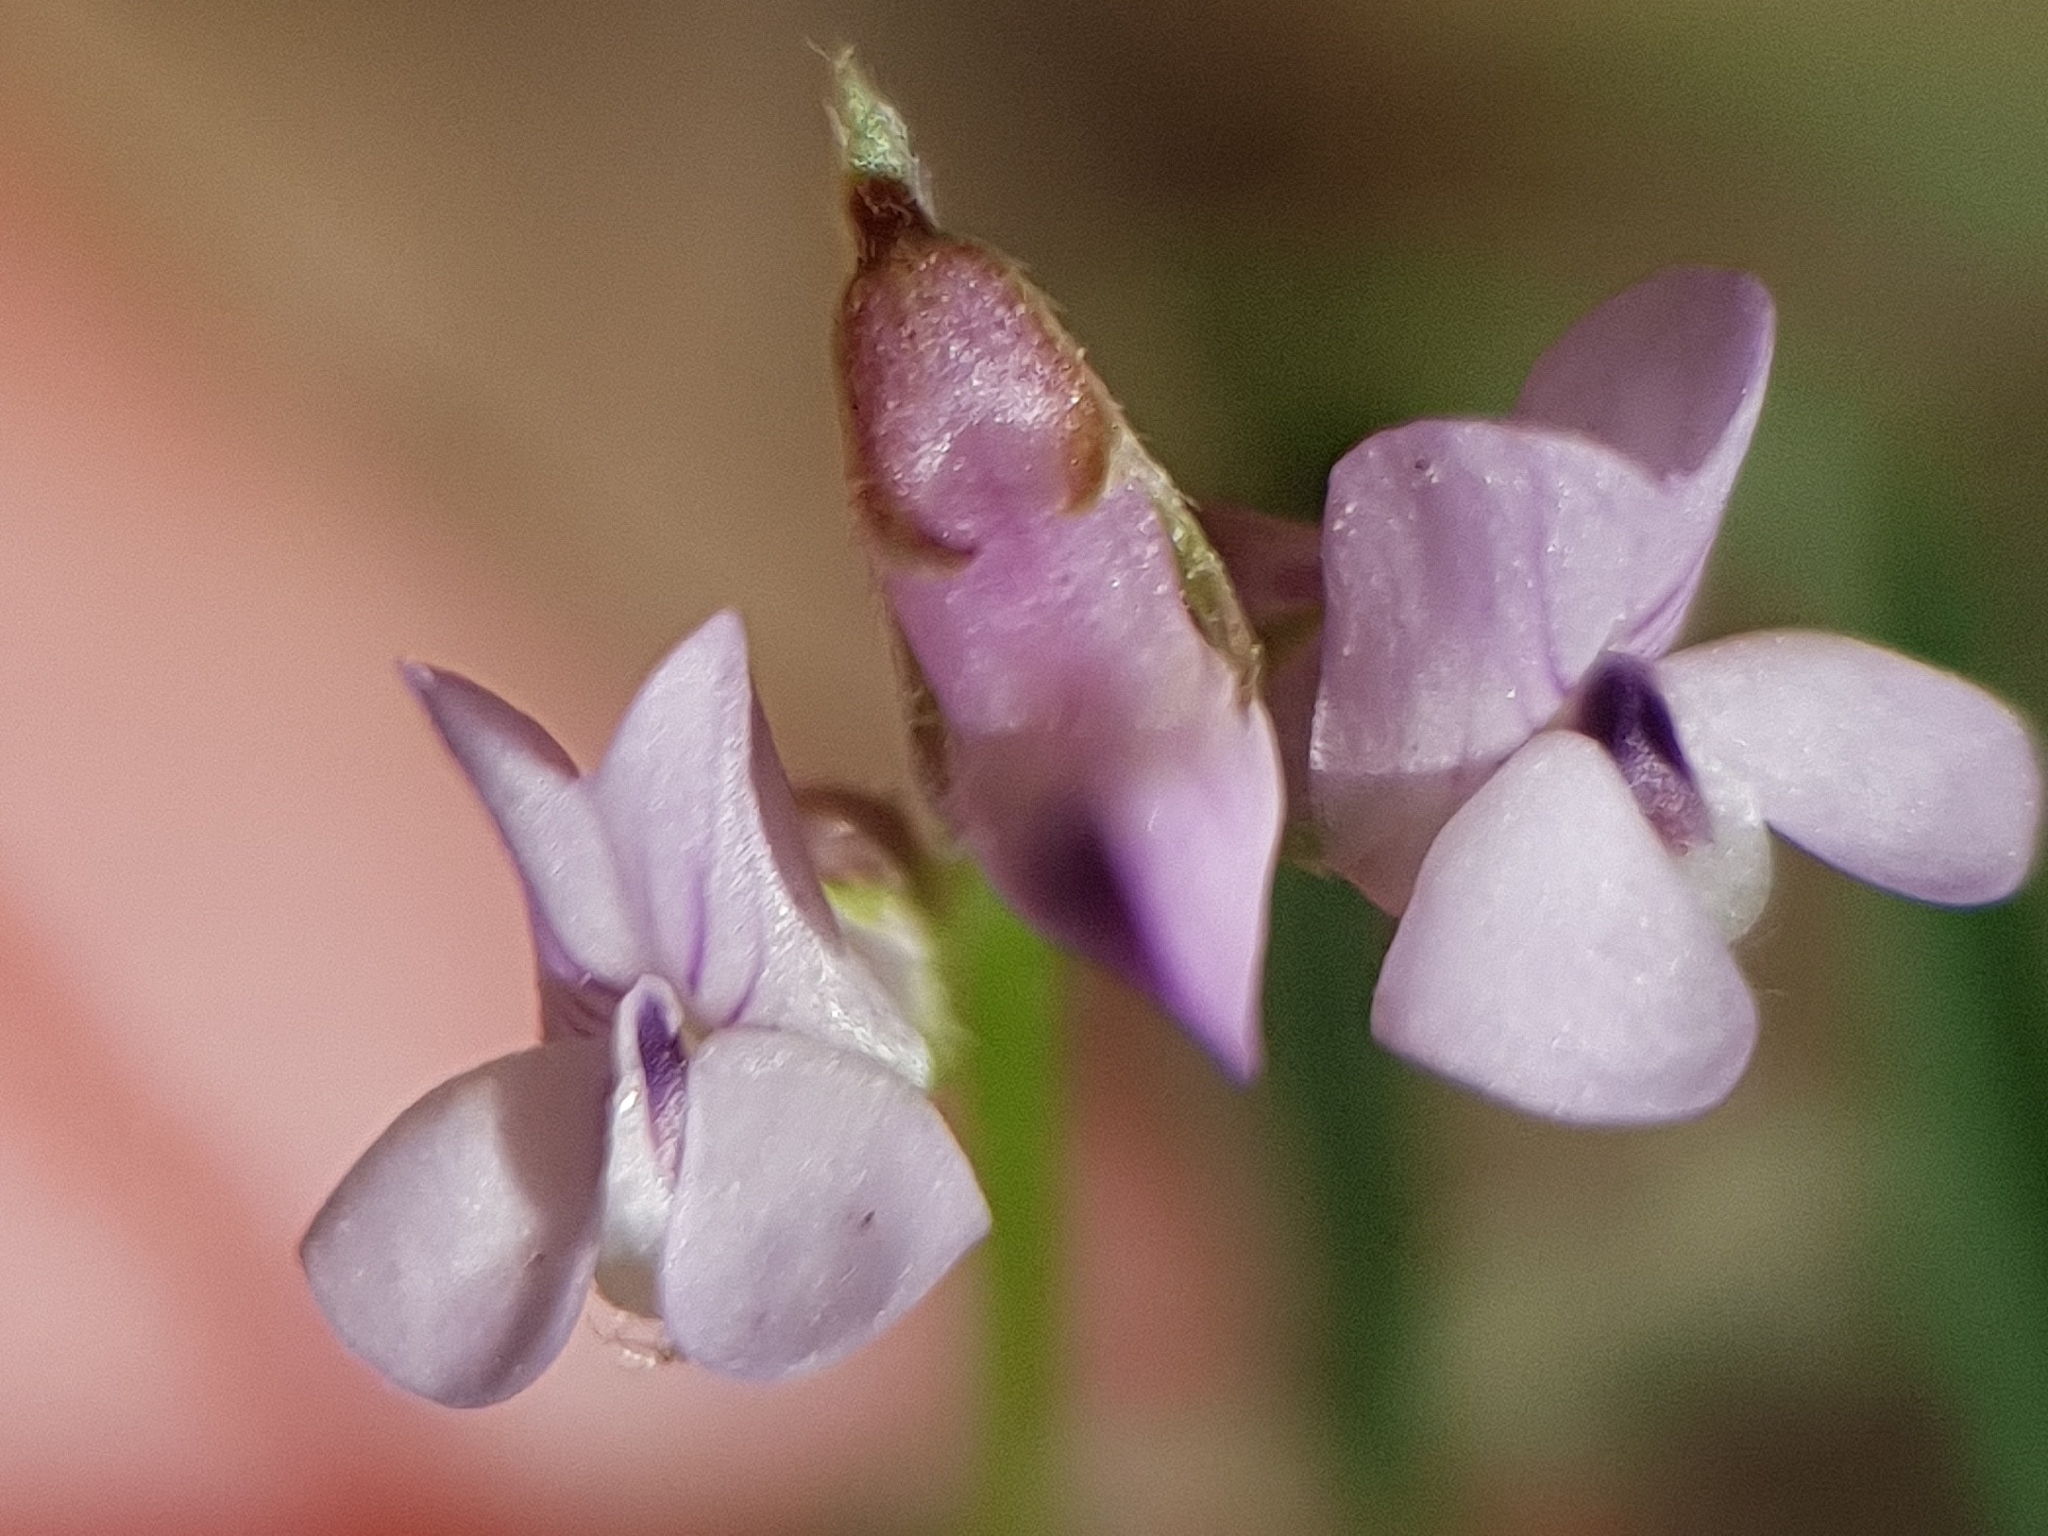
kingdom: Plantae
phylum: Tracheophyta
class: Magnoliopsida
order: Fabales
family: Fabaceae
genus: Vicia
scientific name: Vicia disperma
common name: European vetch
